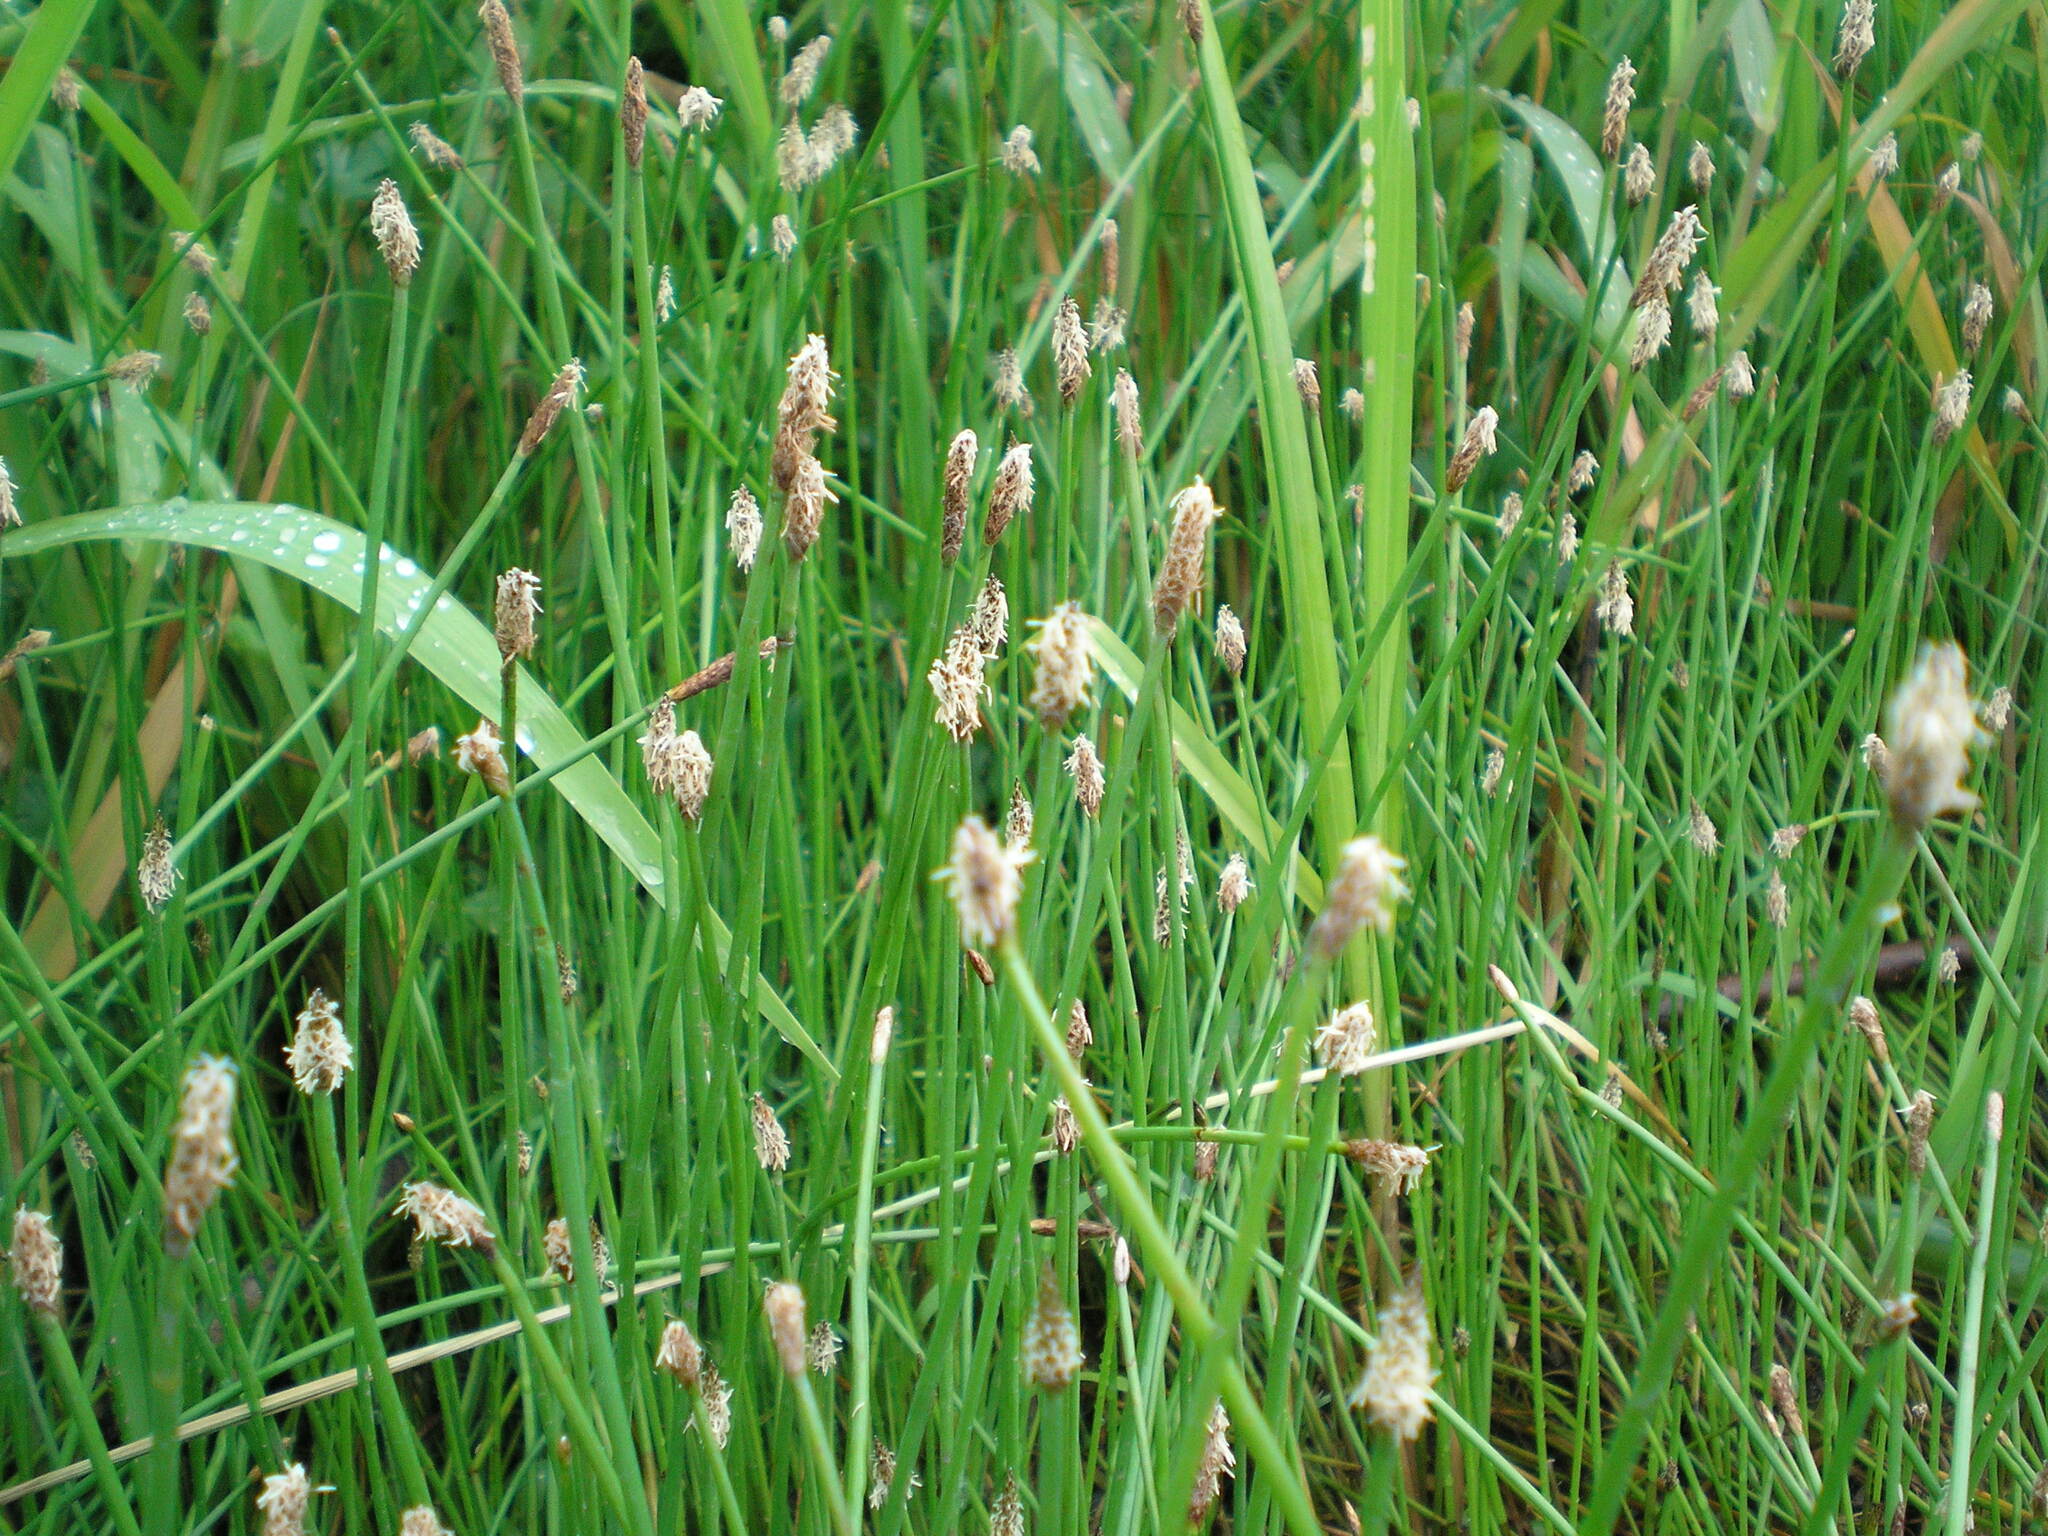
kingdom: Plantae
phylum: Tracheophyta
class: Liliopsida
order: Poales
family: Cyperaceae
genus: Eleocharis
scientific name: Eleocharis palustris
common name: Common spike-rush
